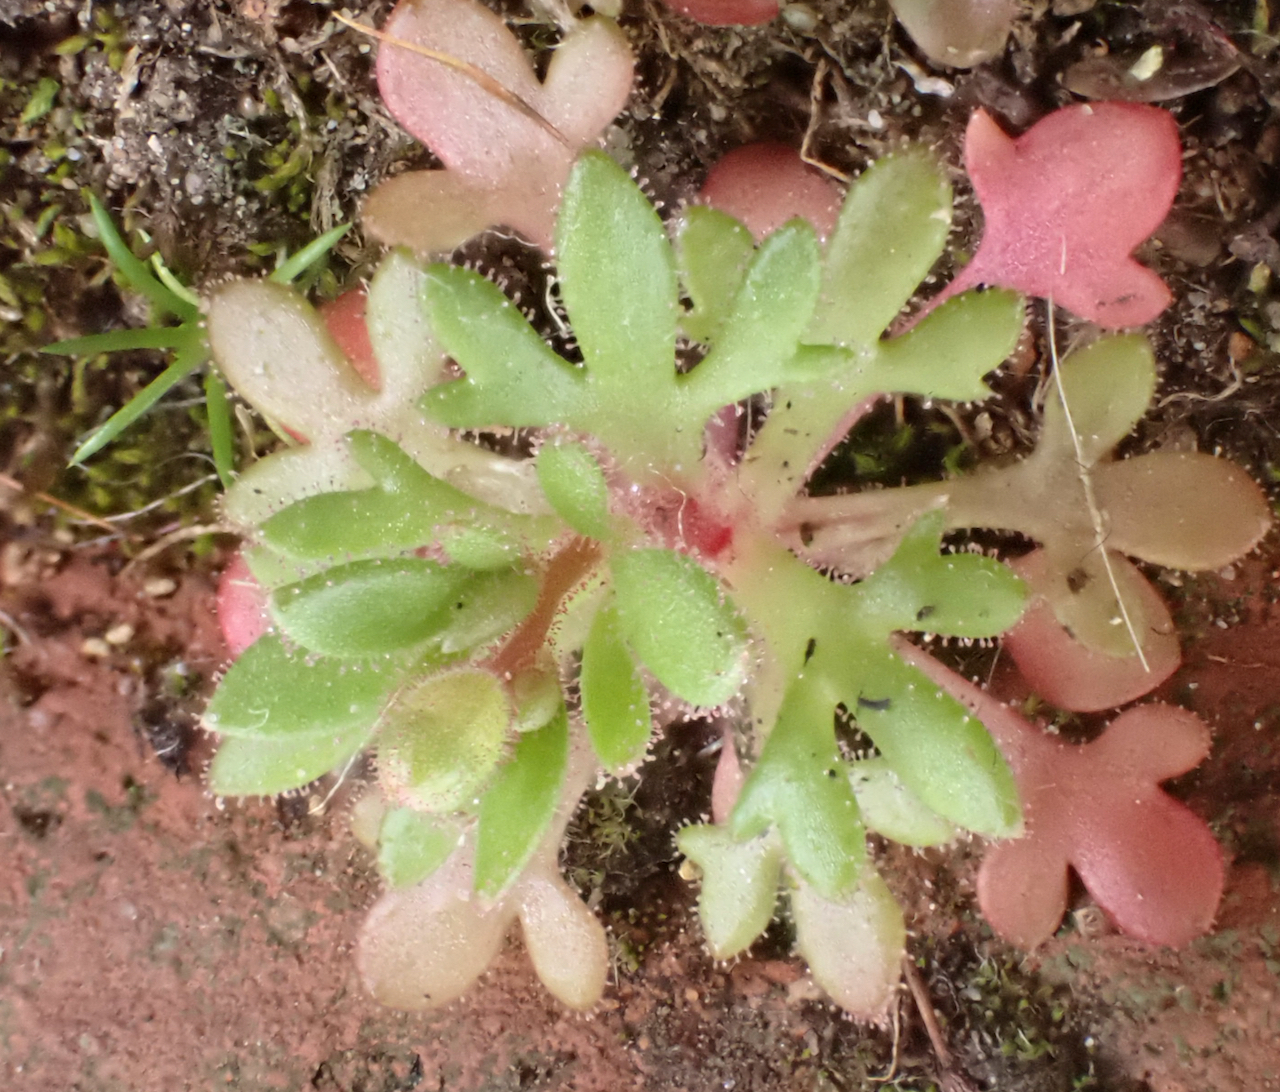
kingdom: Plantae
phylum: Tracheophyta
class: Magnoliopsida
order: Saxifragales
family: Saxifragaceae
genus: Saxifraga
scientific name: Saxifraga tridactylites
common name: Rue-leaved saxifrage
